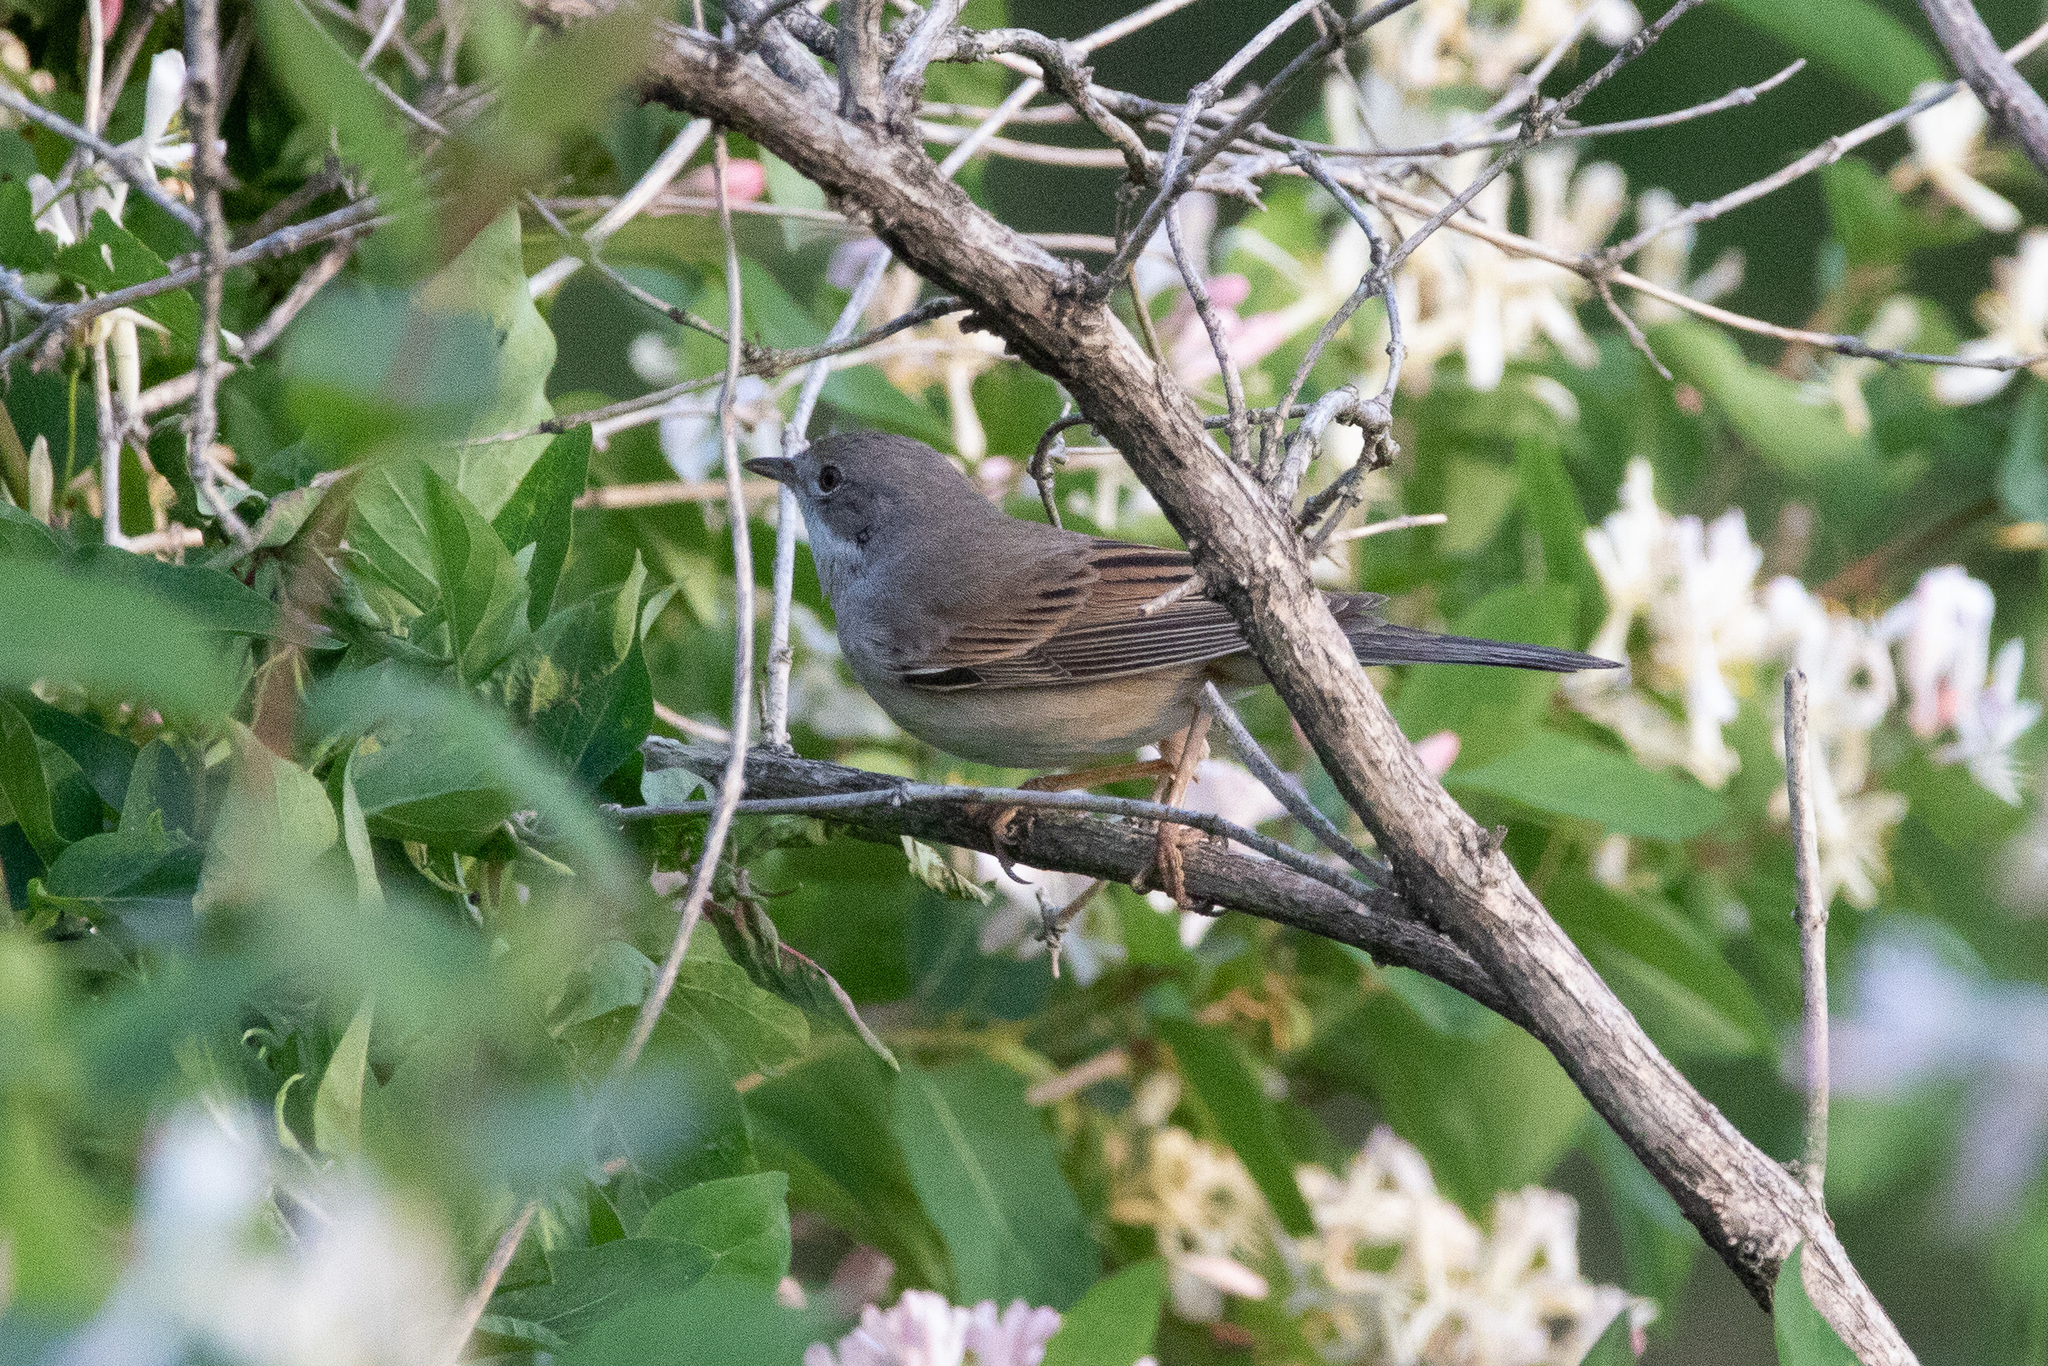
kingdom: Animalia
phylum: Chordata
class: Aves
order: Passeriformes
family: Sylviidae
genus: Sylvia
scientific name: Sylvia communis
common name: Common whitethroat
